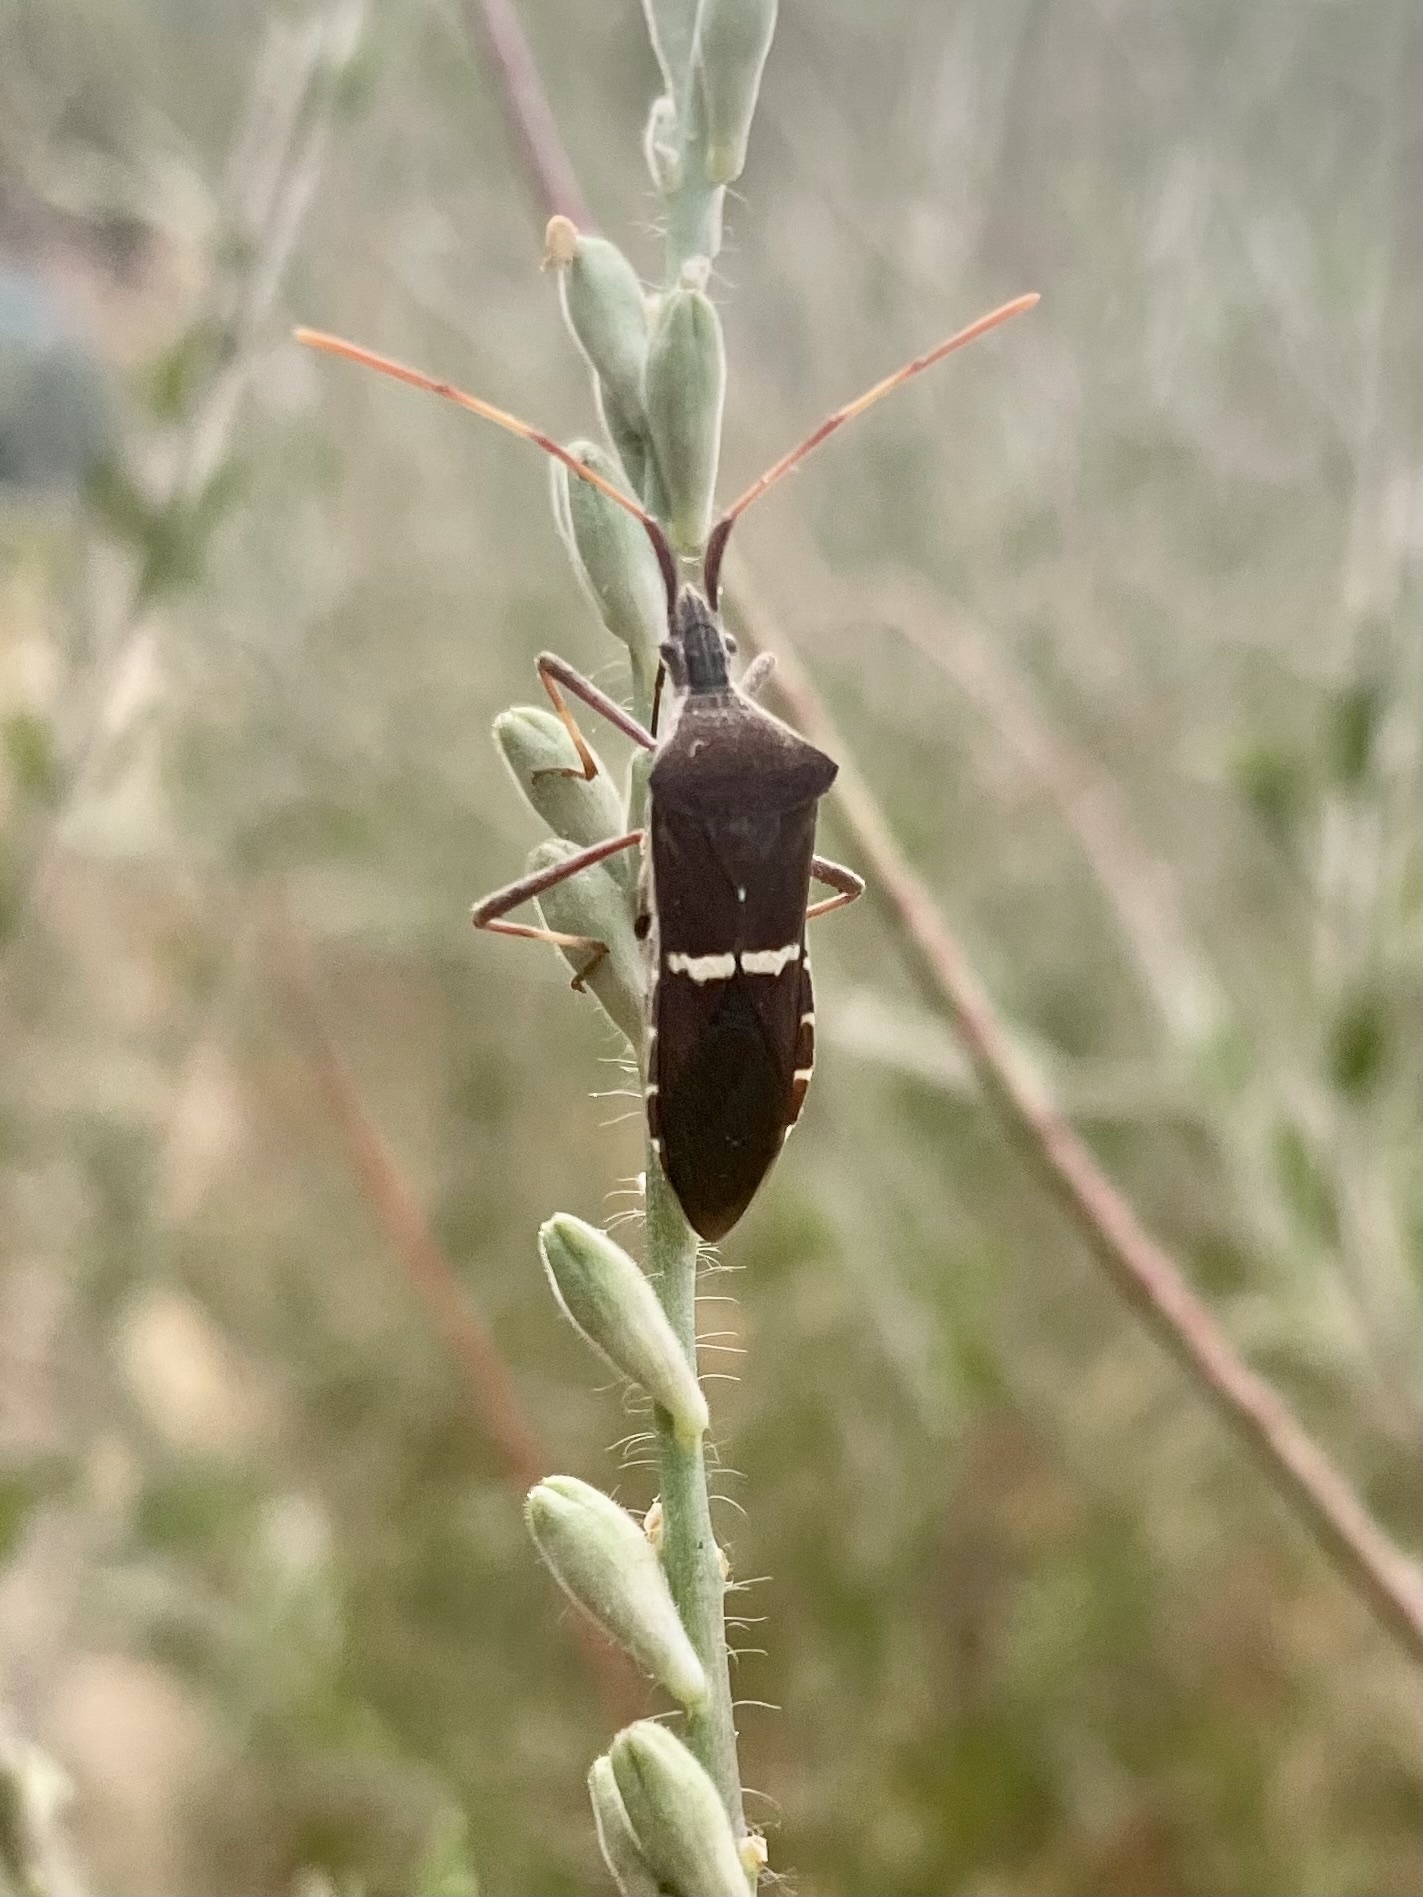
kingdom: Animalia
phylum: Arthropoda
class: Insecta
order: Hemiptera
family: Coreidae
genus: Leptoglossus
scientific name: Leptoglossus phyllopus
